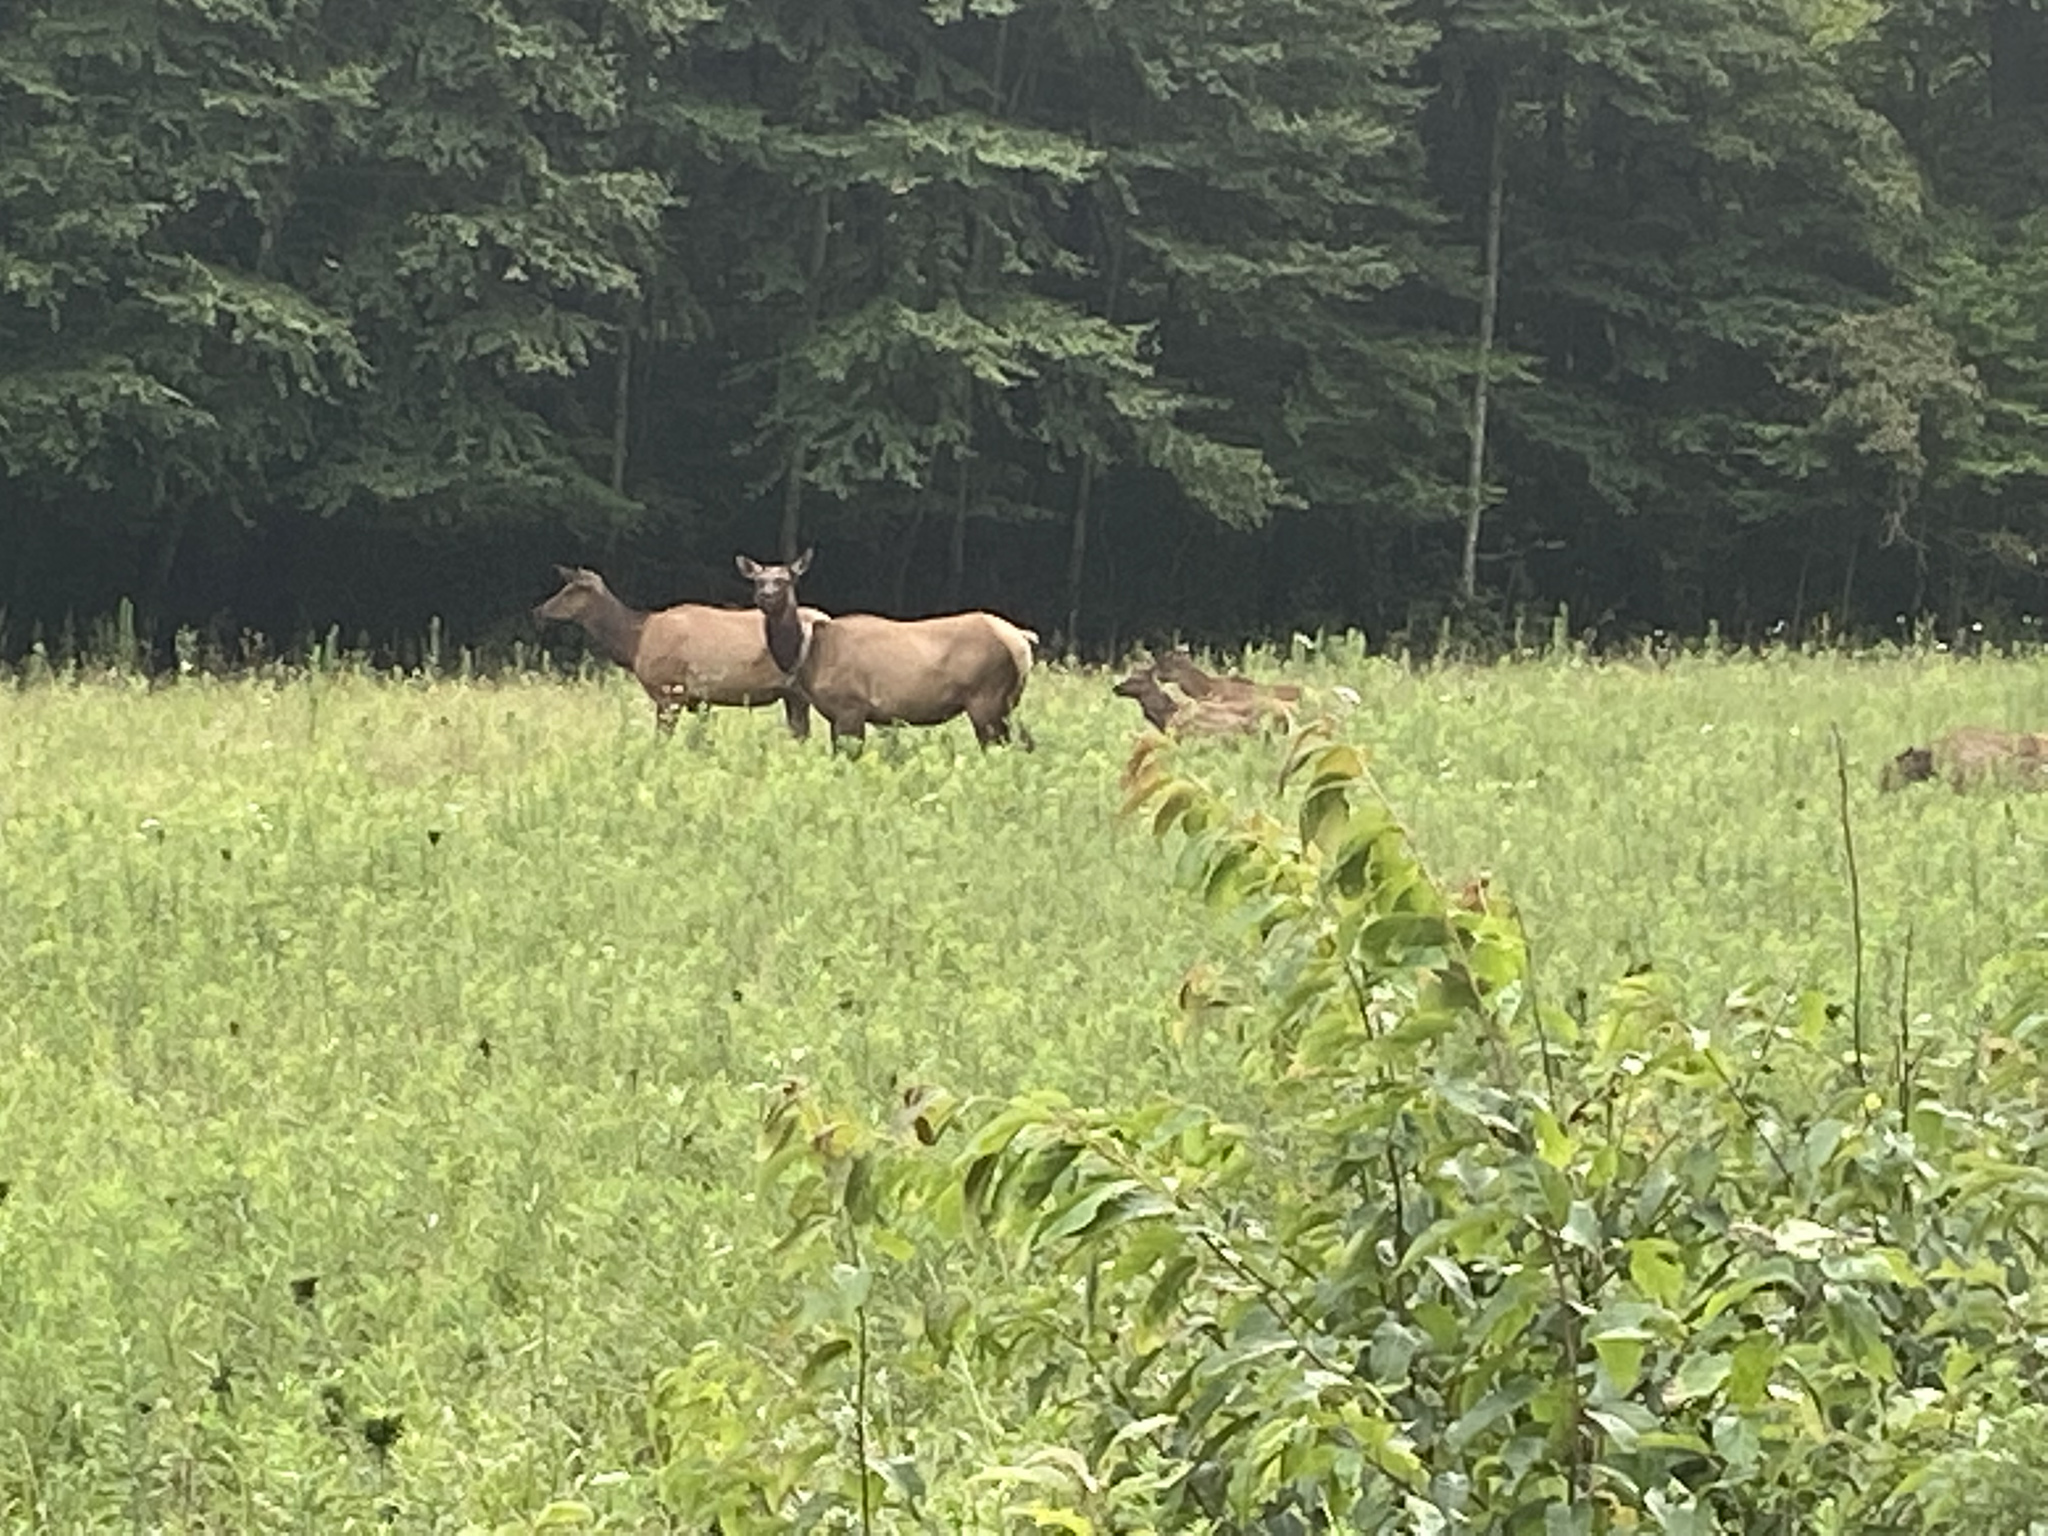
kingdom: Animalia
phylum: Chordata
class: Mammalia
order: Artiodactyla
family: Cervidae
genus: Cervus
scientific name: Cervus elaphus
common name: Red deer
